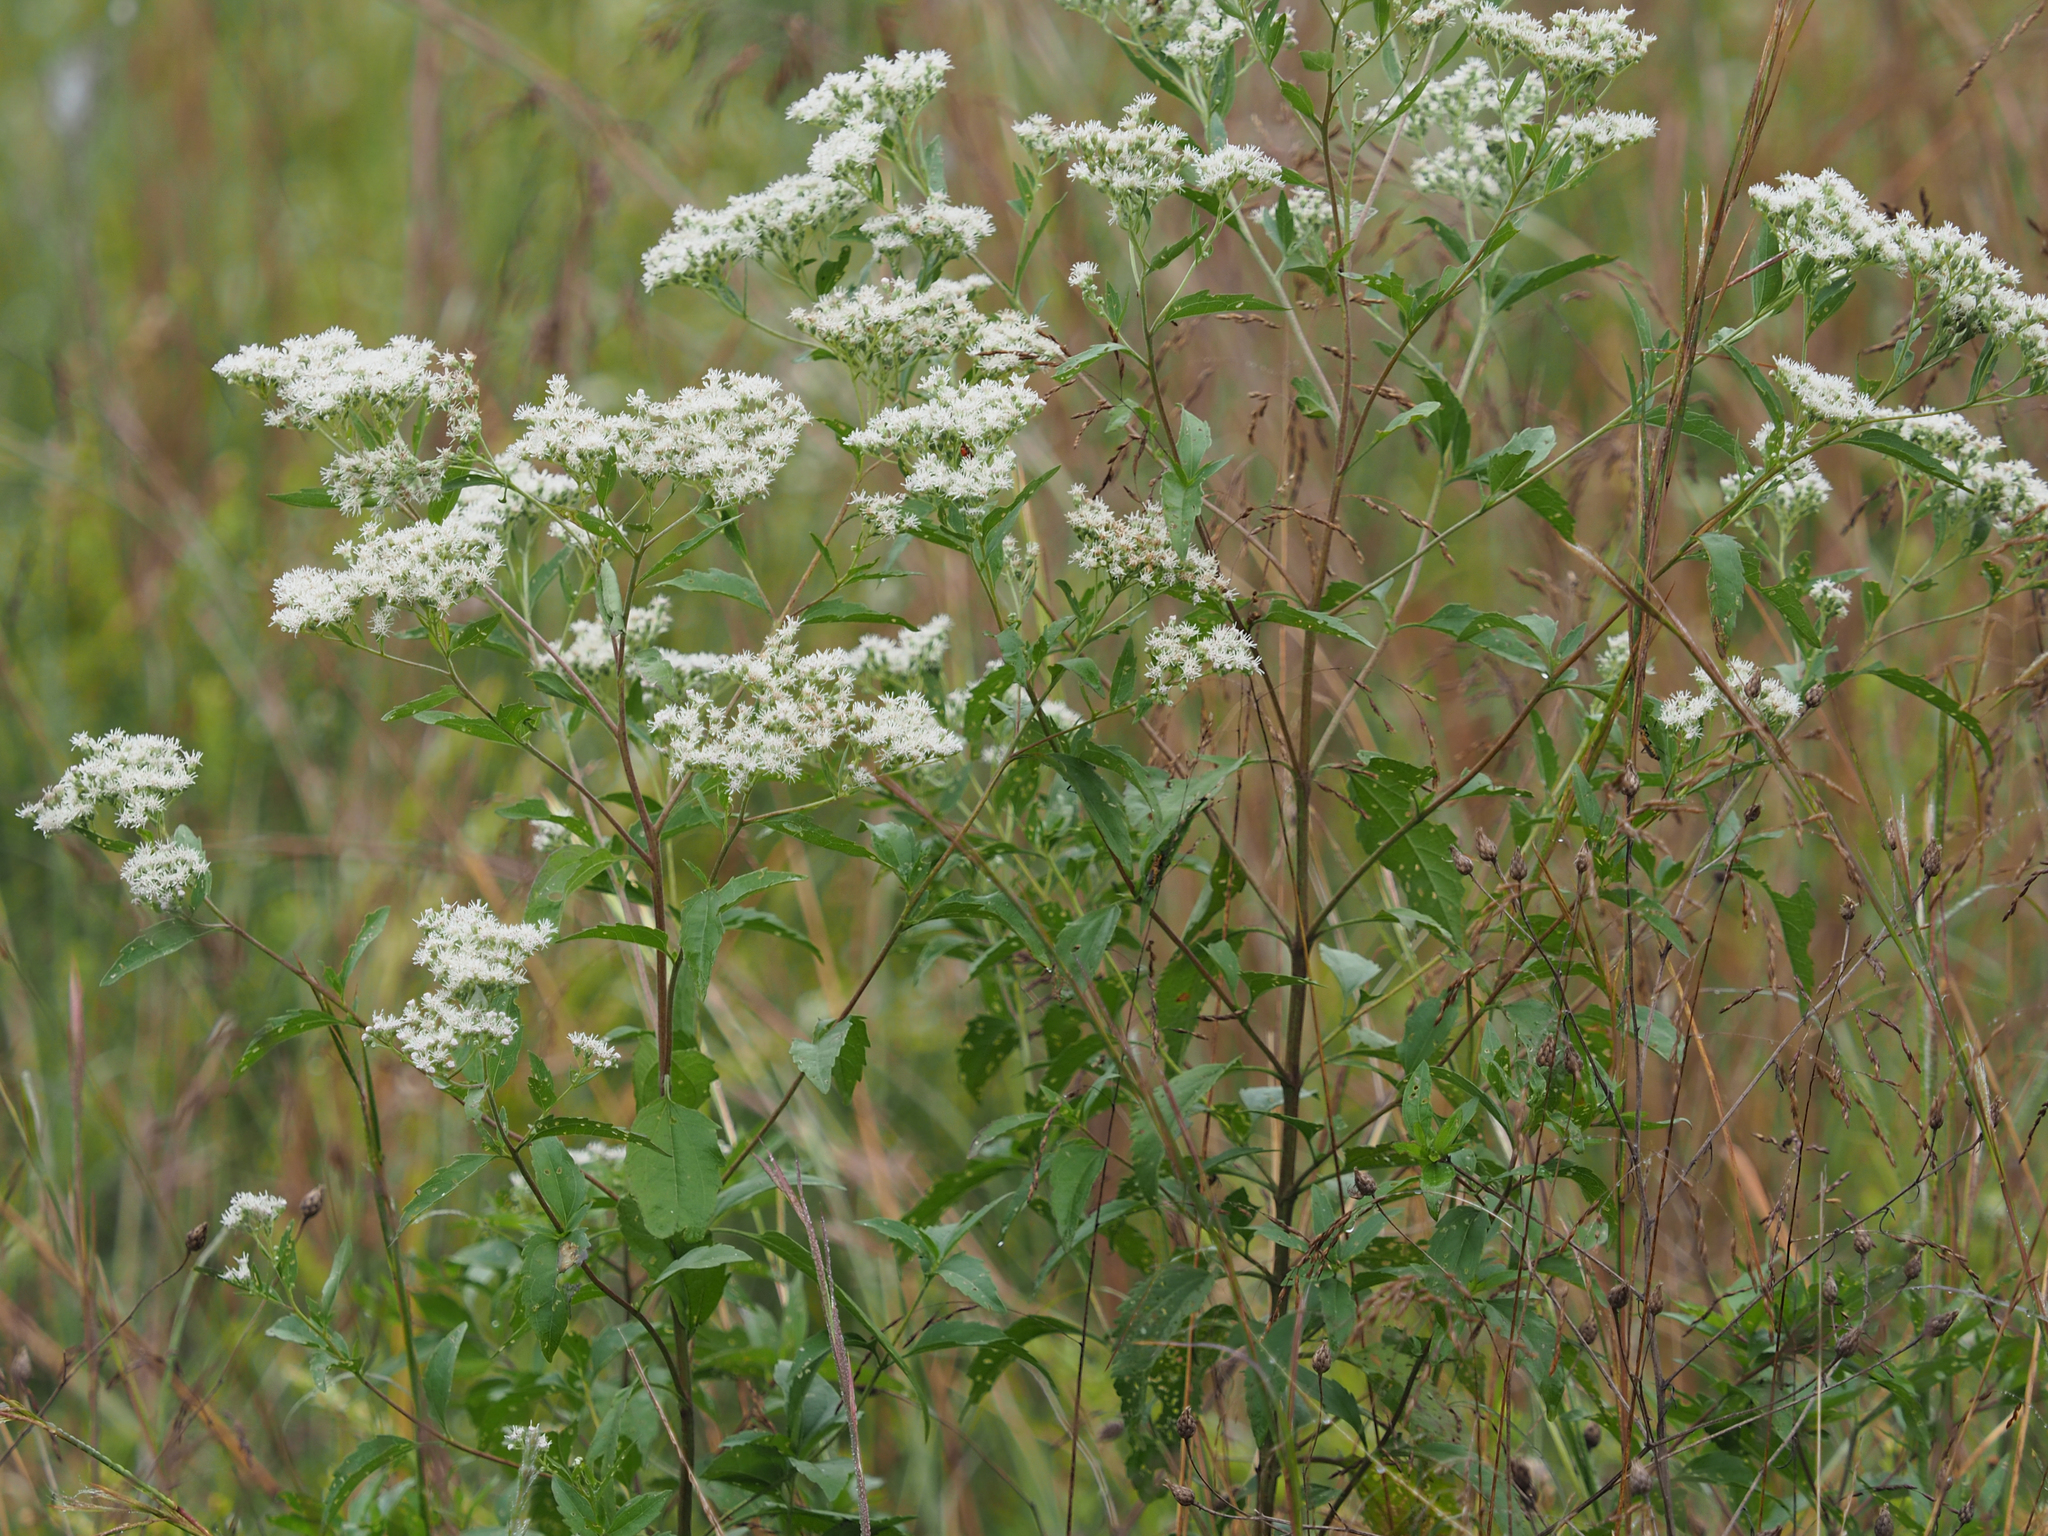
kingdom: Plantae
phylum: Tracheophyta
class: Magnoliopsida
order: Asterales
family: Asteraceae
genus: Eupatorium
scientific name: Eupatorium serotinum
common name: Late boneset
